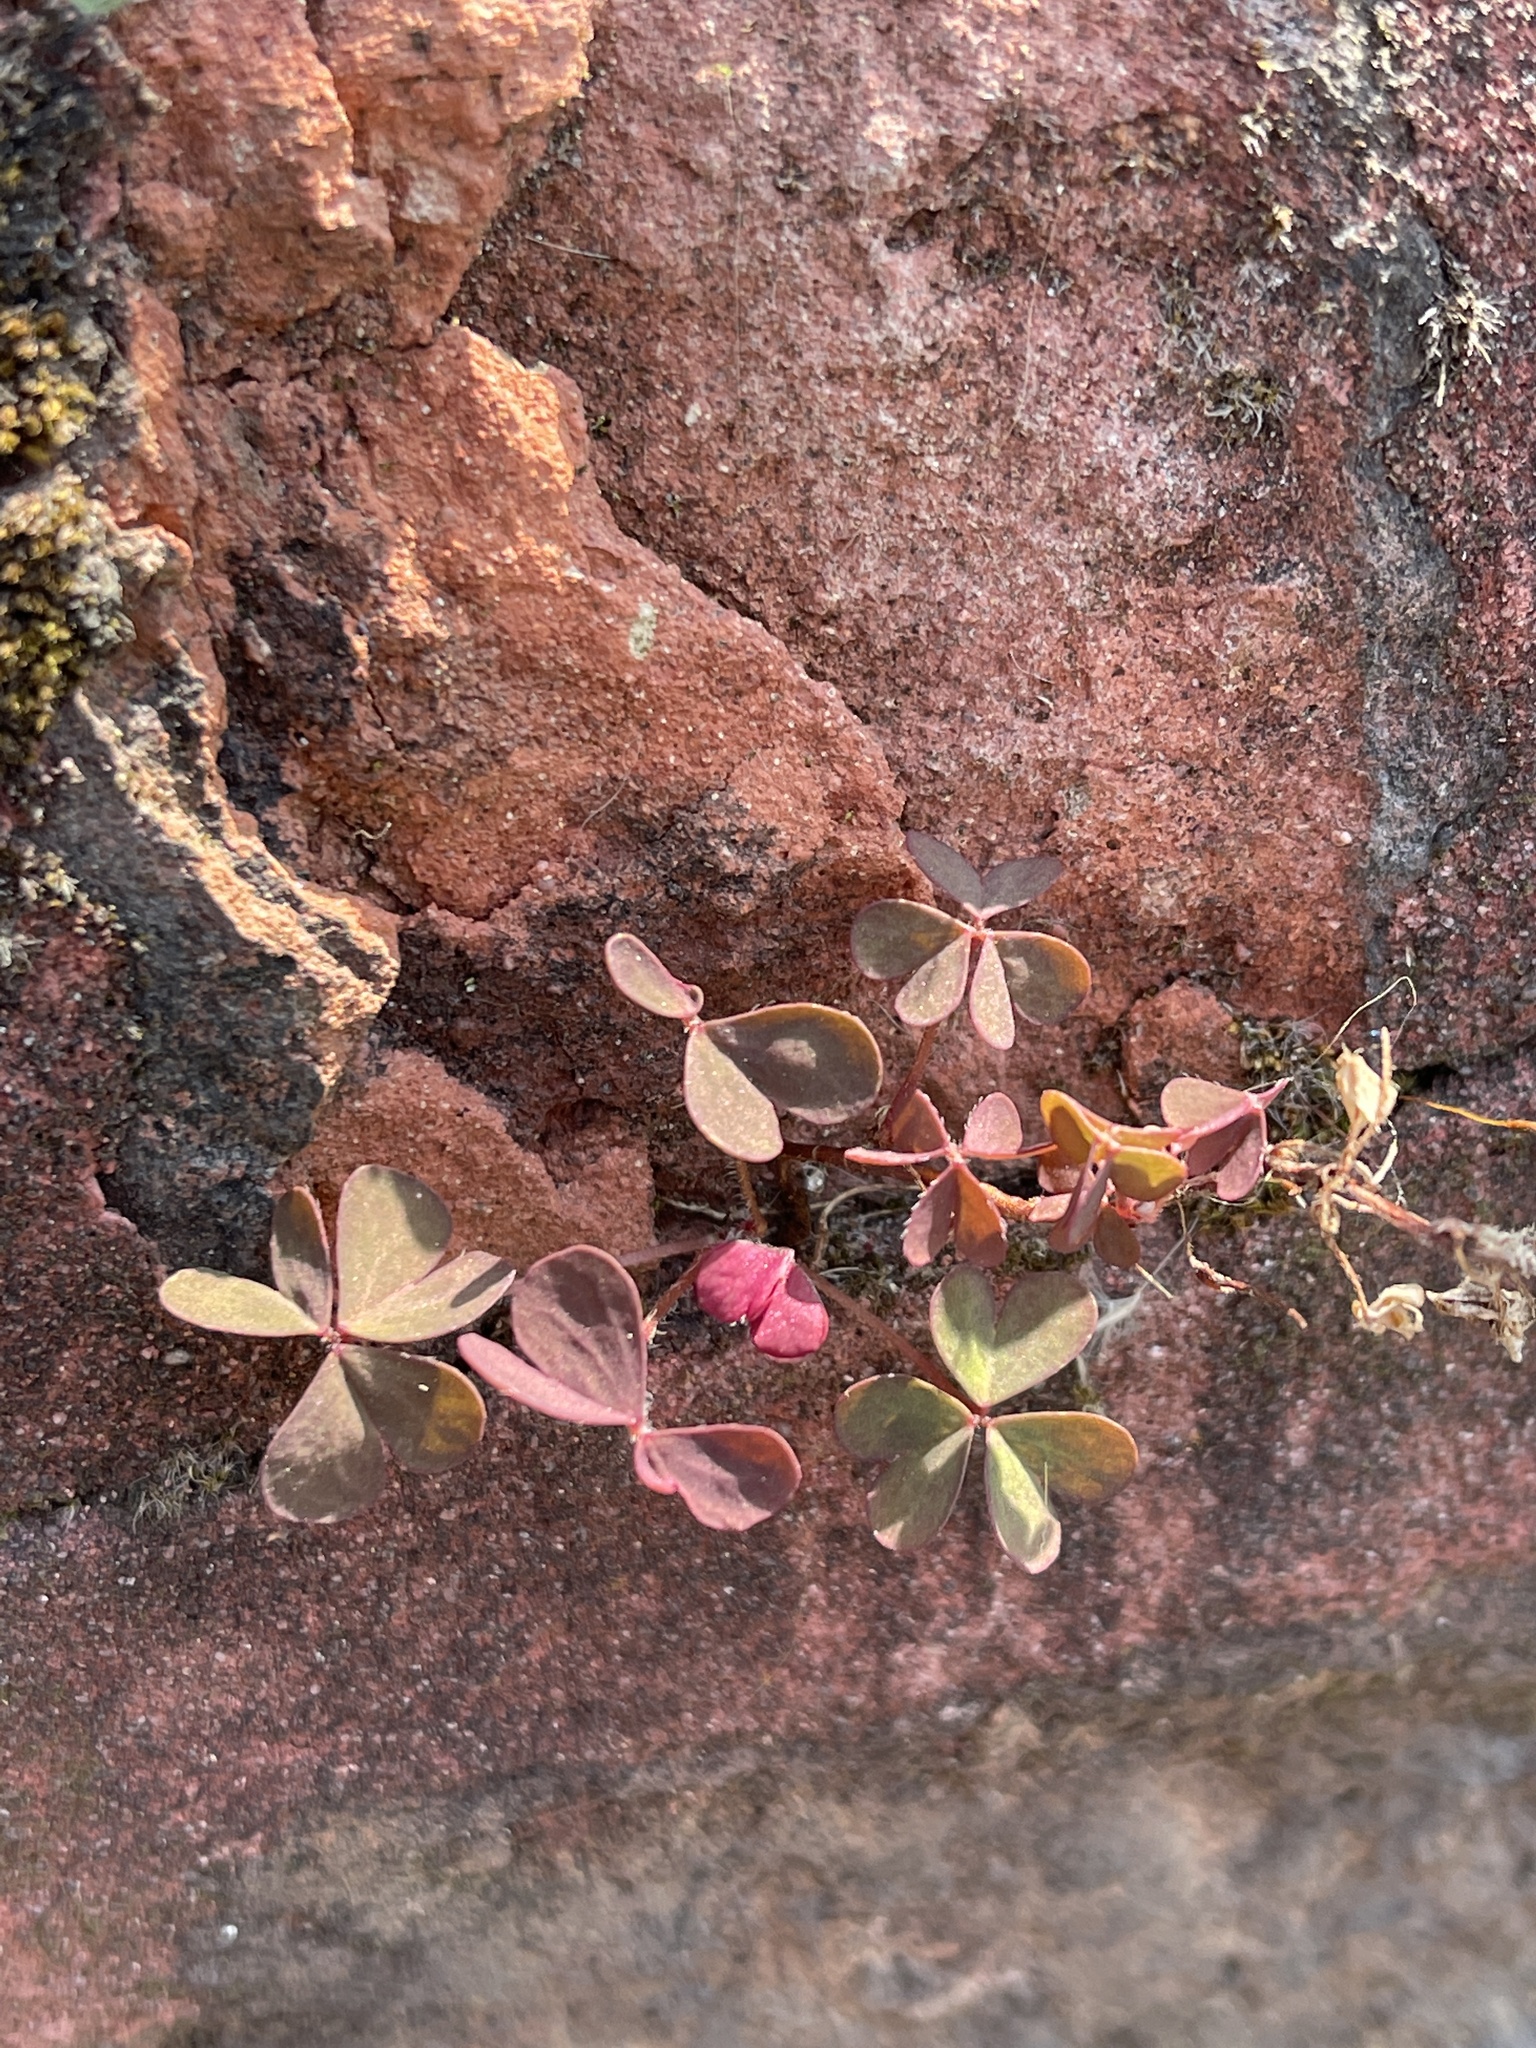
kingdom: Plantae
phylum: Tracheophyta
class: Magnoliopsida
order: Oxalidales
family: Oxalidaceae
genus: Oxalis
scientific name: Oxalis corniculata
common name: Procumbent yellow-sorrel
